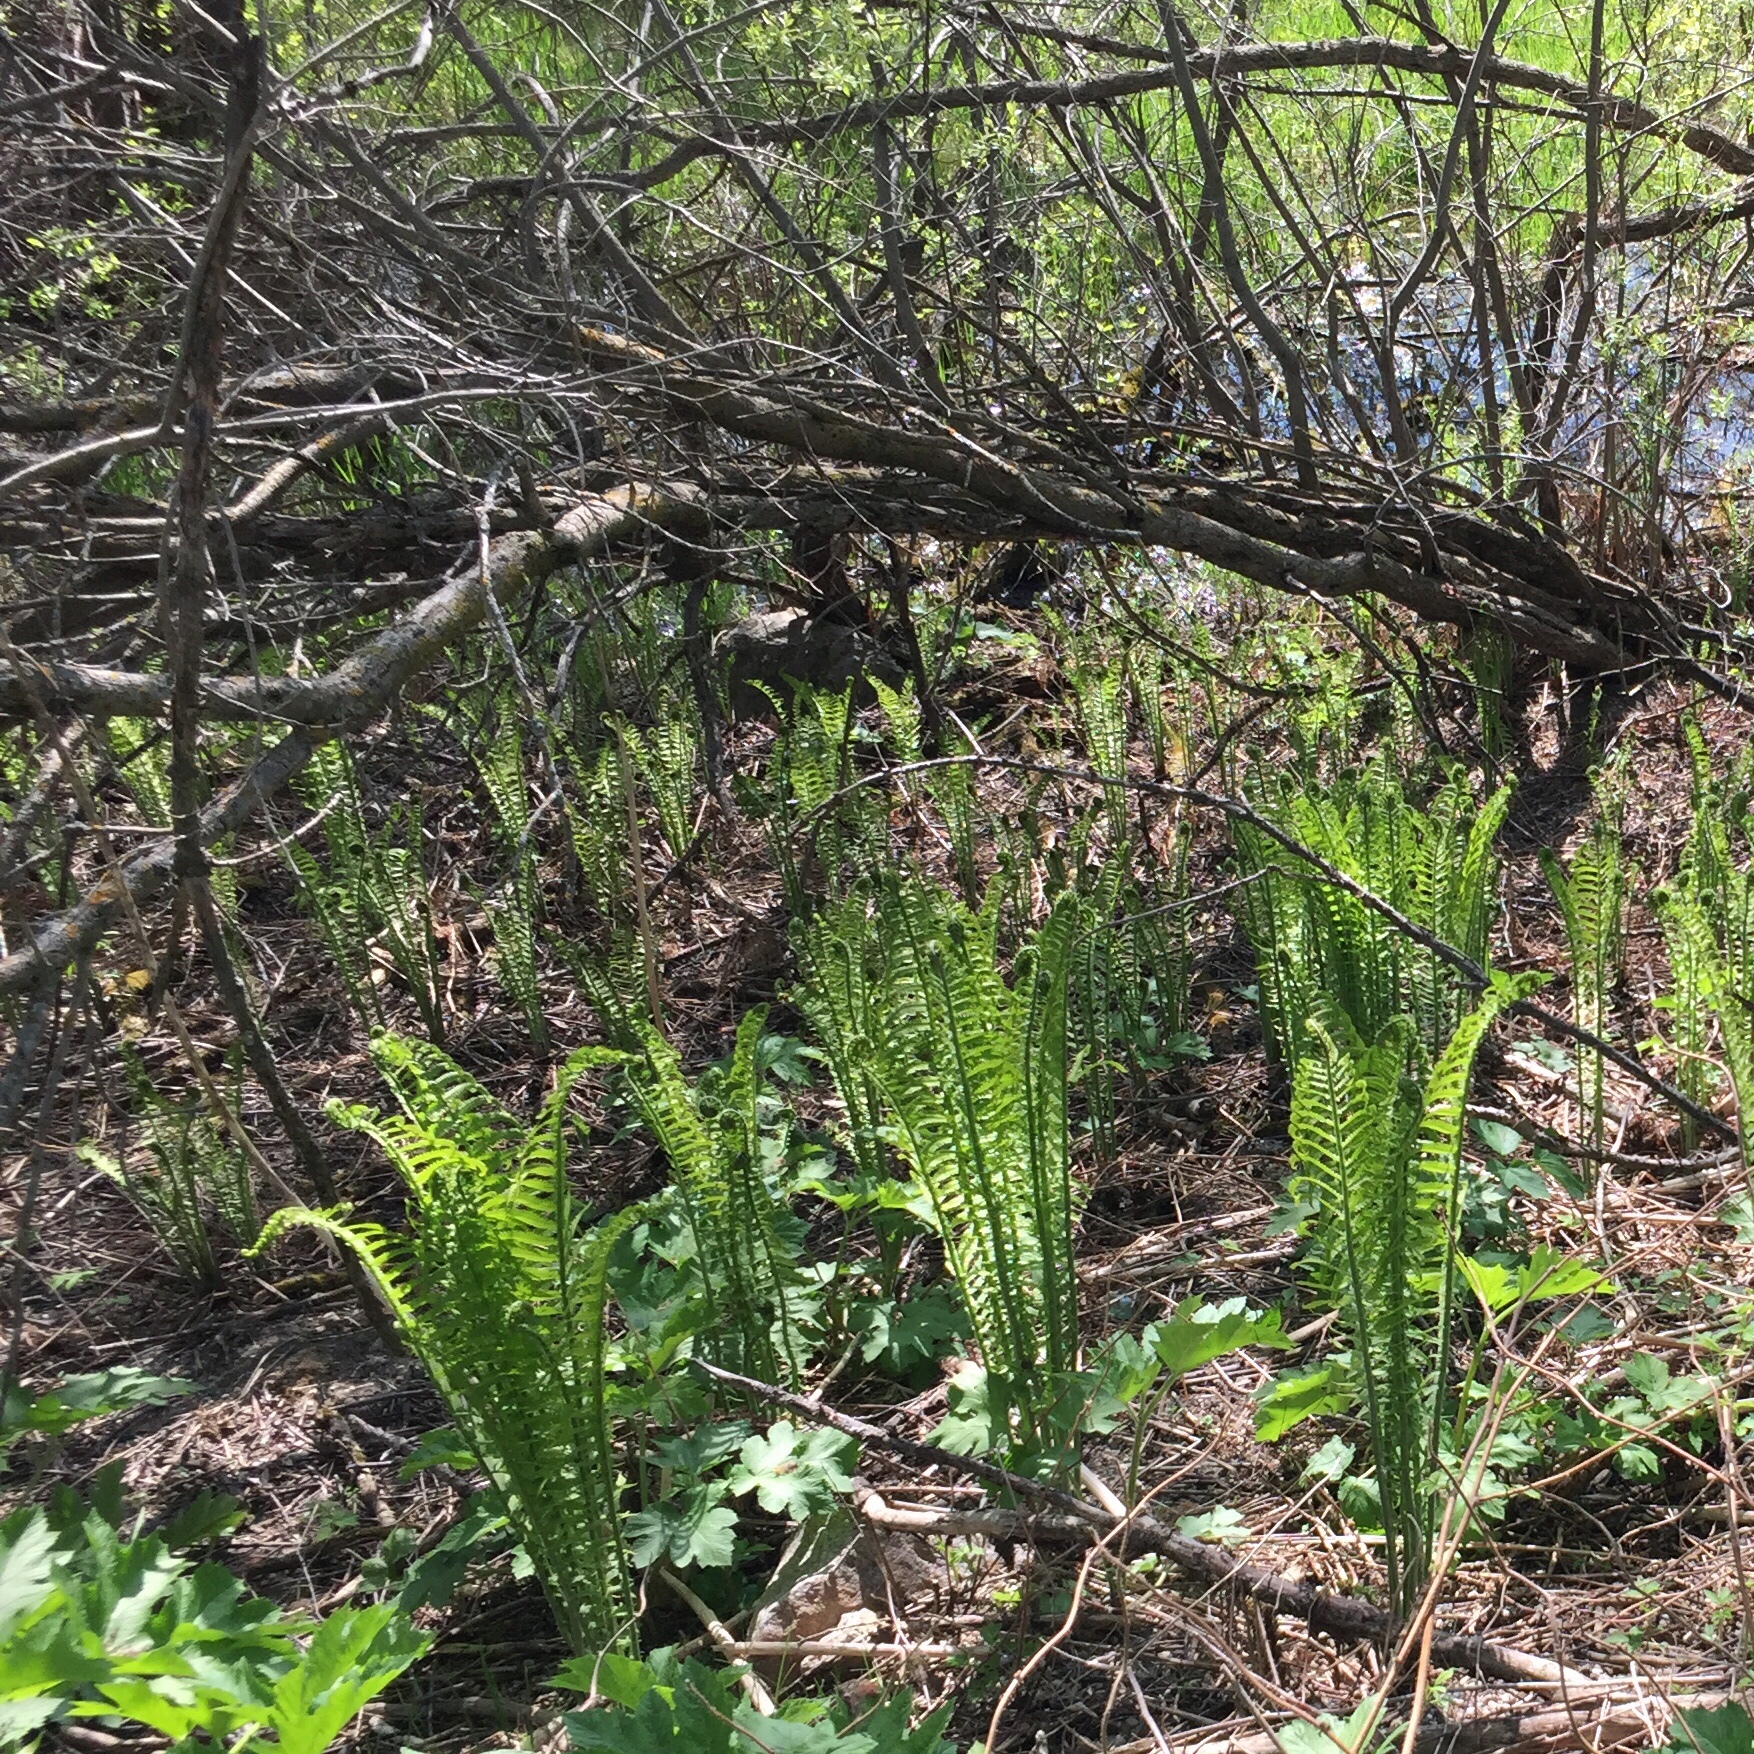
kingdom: Plantae
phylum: Tracheophyta
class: Polypodiopsida
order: Polypodiales
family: Onocleaceae
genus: Matteuccia
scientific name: Matteuccia struthiopteris
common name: Ostrich fern
